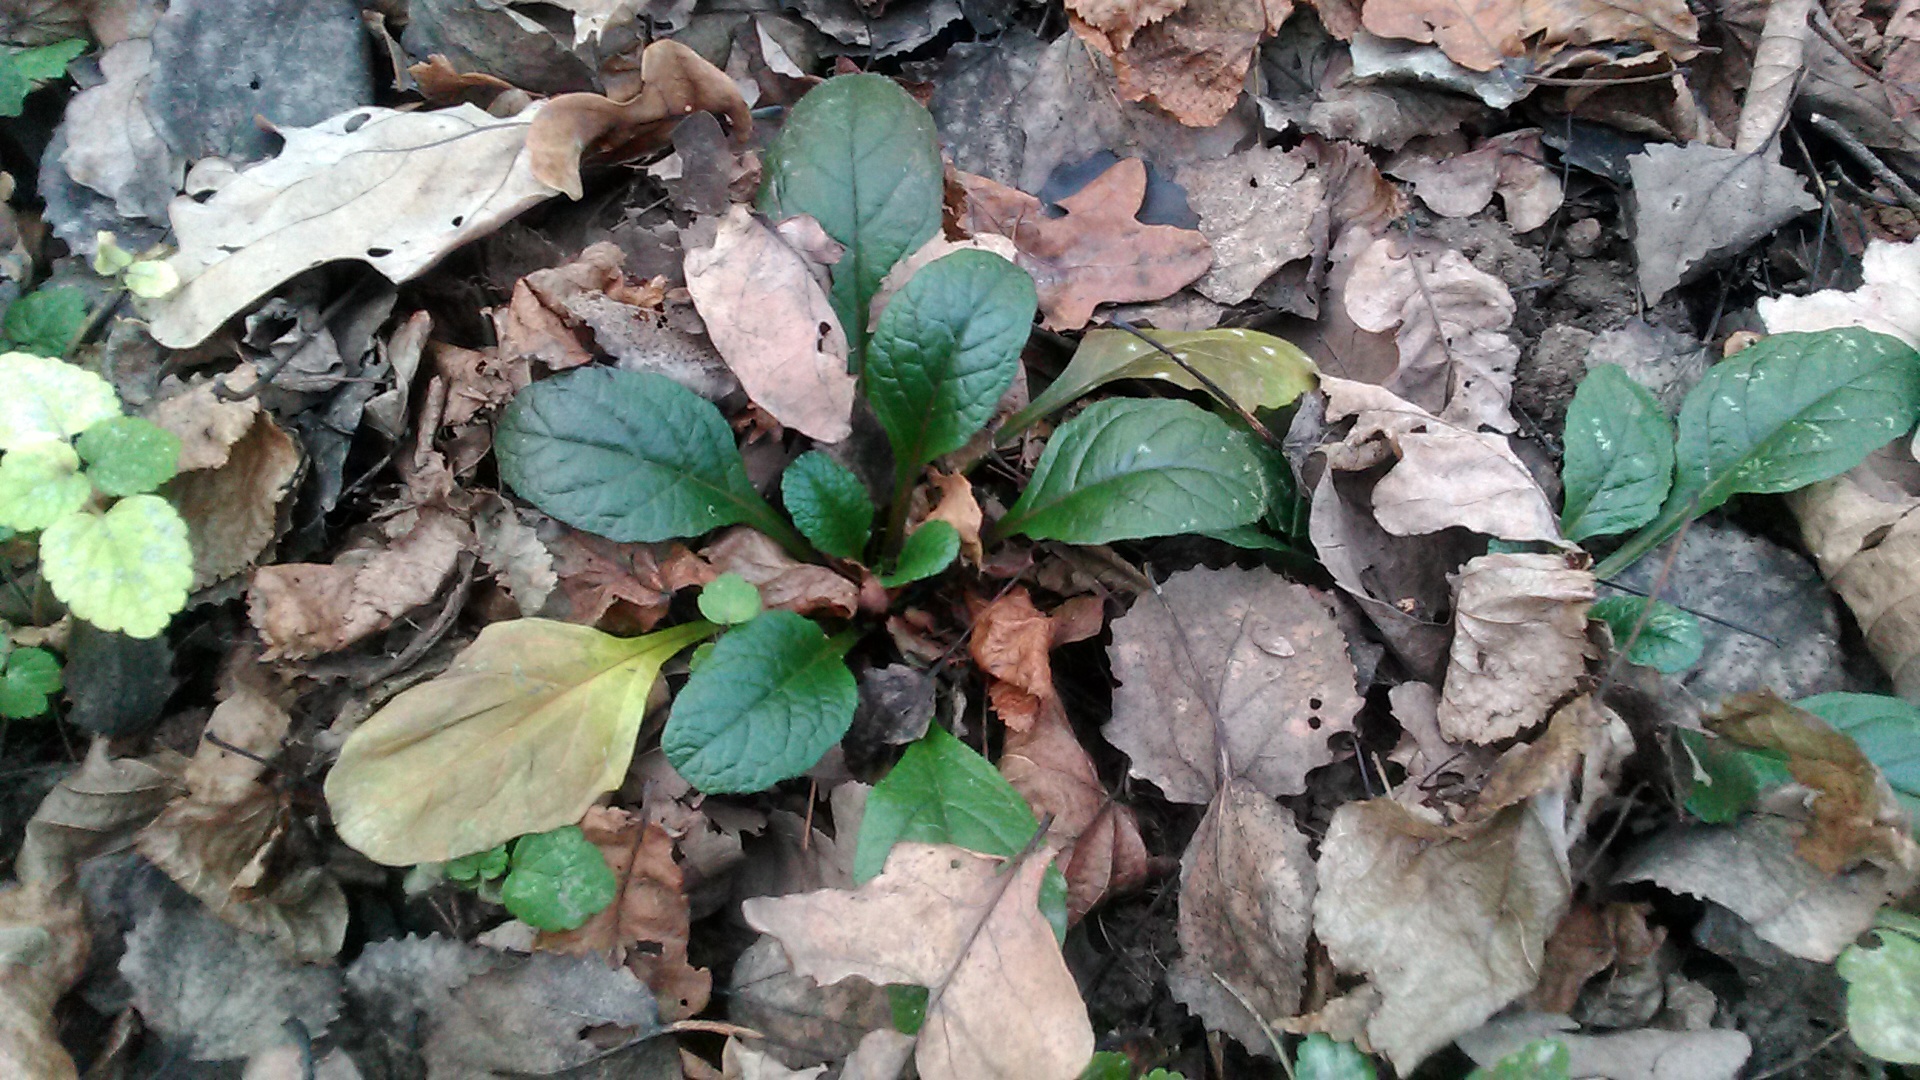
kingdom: Plantae
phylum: Tracheophyta
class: Magnoliopsida
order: Lamiales
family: Lamiaceae
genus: Ajuga
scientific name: Ajuga reptans
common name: Bugle
